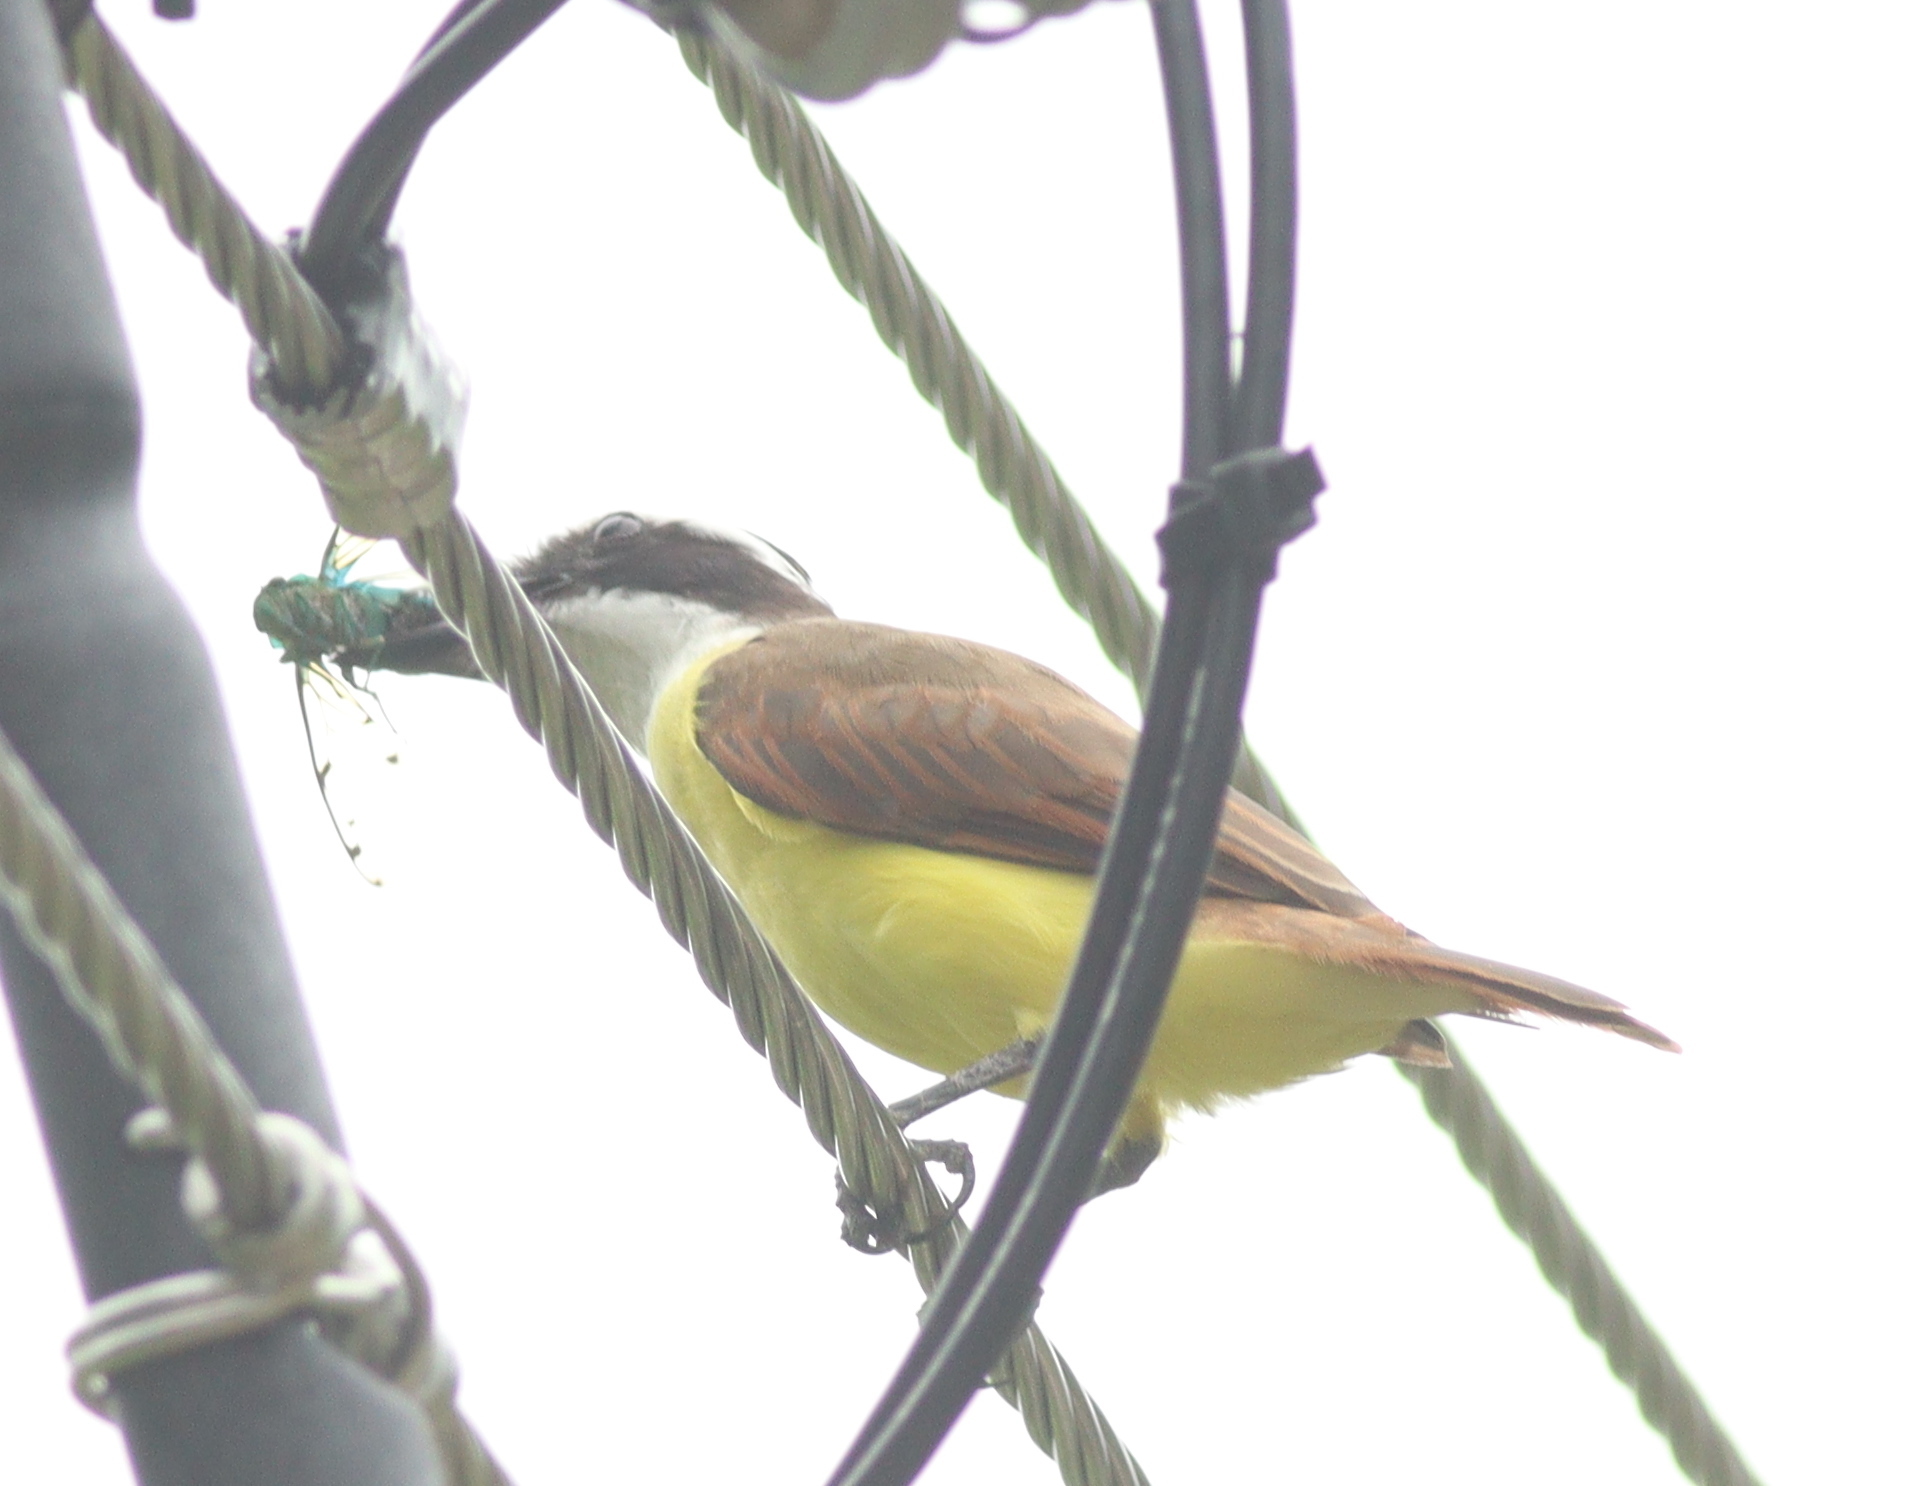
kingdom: Animalia
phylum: Chordata
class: Aves
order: Passeriformes
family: Tyrannidae
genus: Pitangus
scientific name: Pitangus sulphuratus
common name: Great kiskadee
